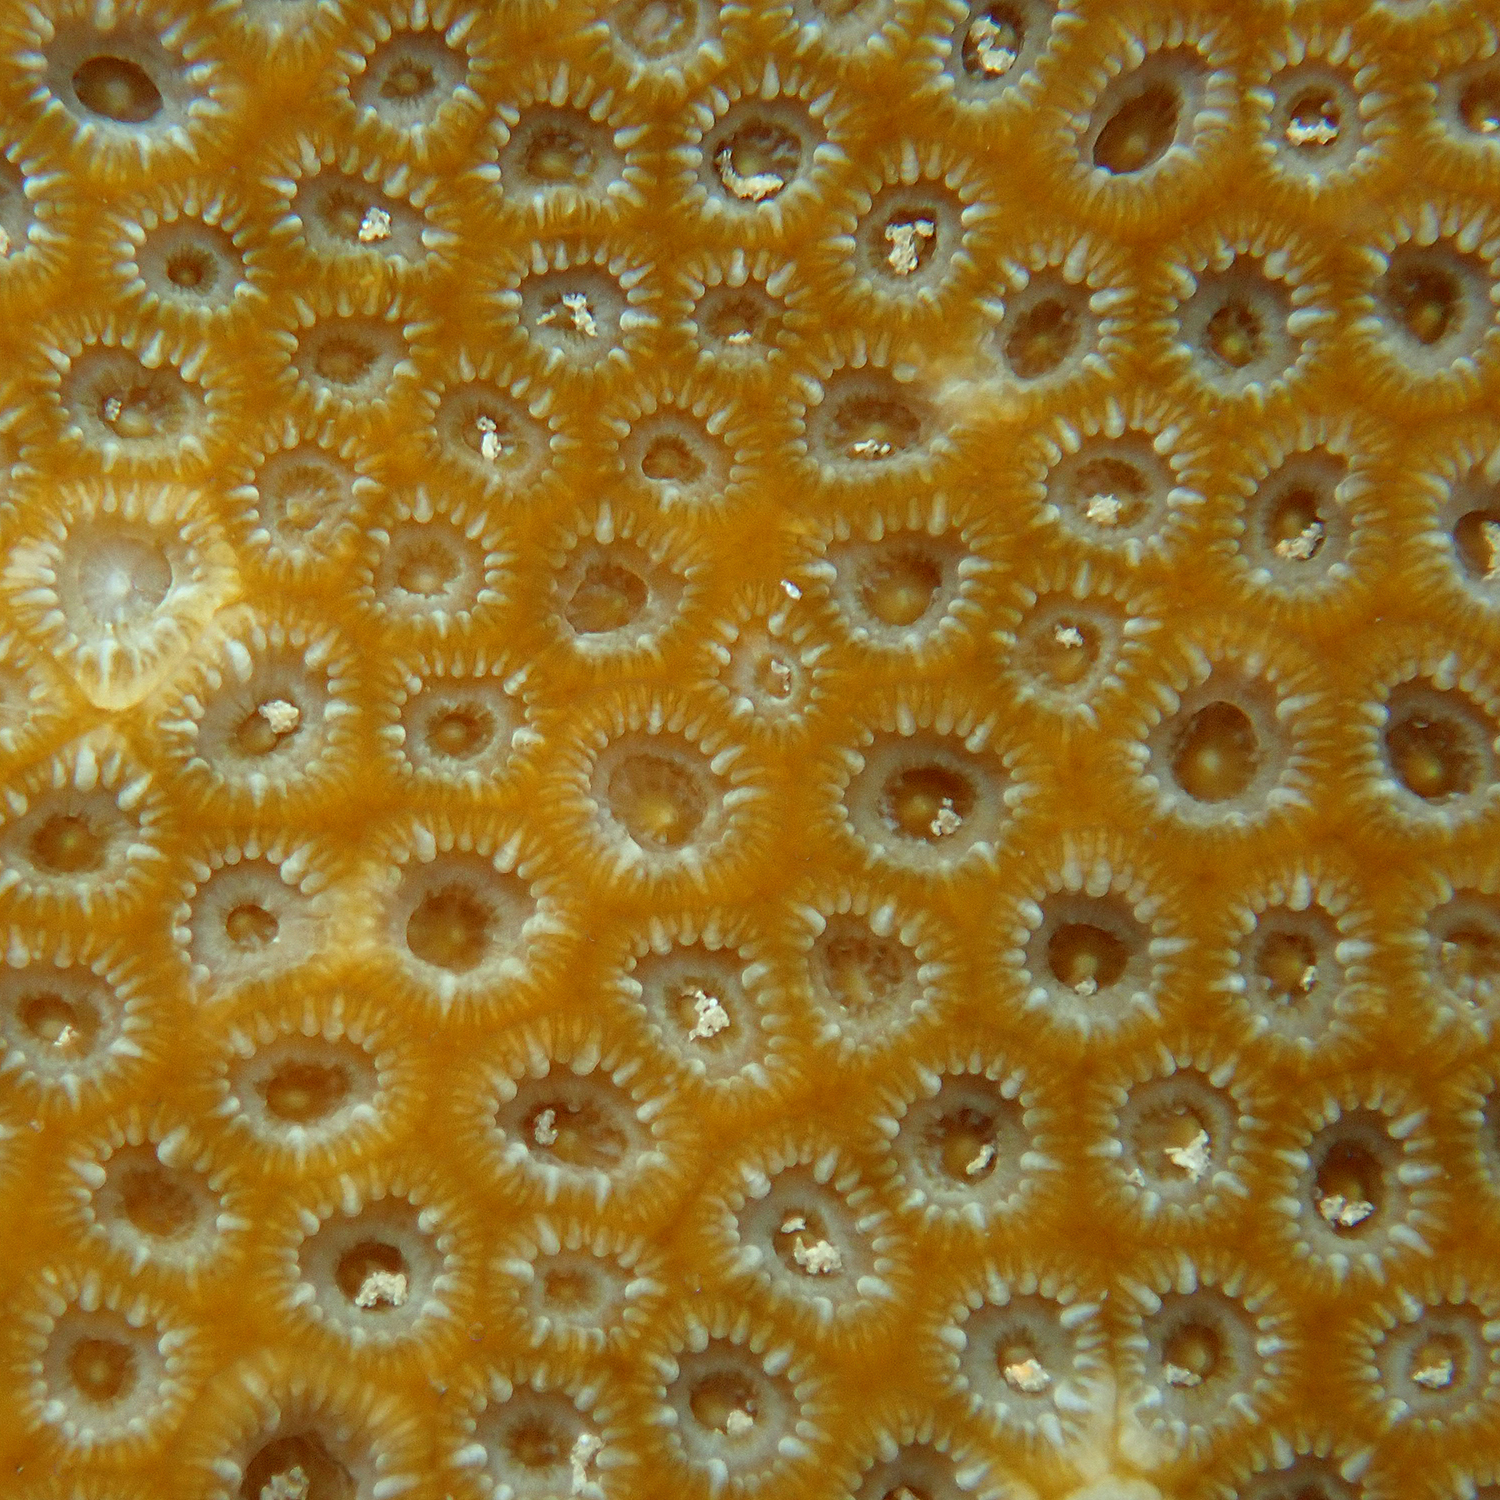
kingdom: Animalia
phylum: Cnidaria
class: Anthozoa
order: Scleractinia
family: Merulinidae
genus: Astrea
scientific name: Astrea curta
